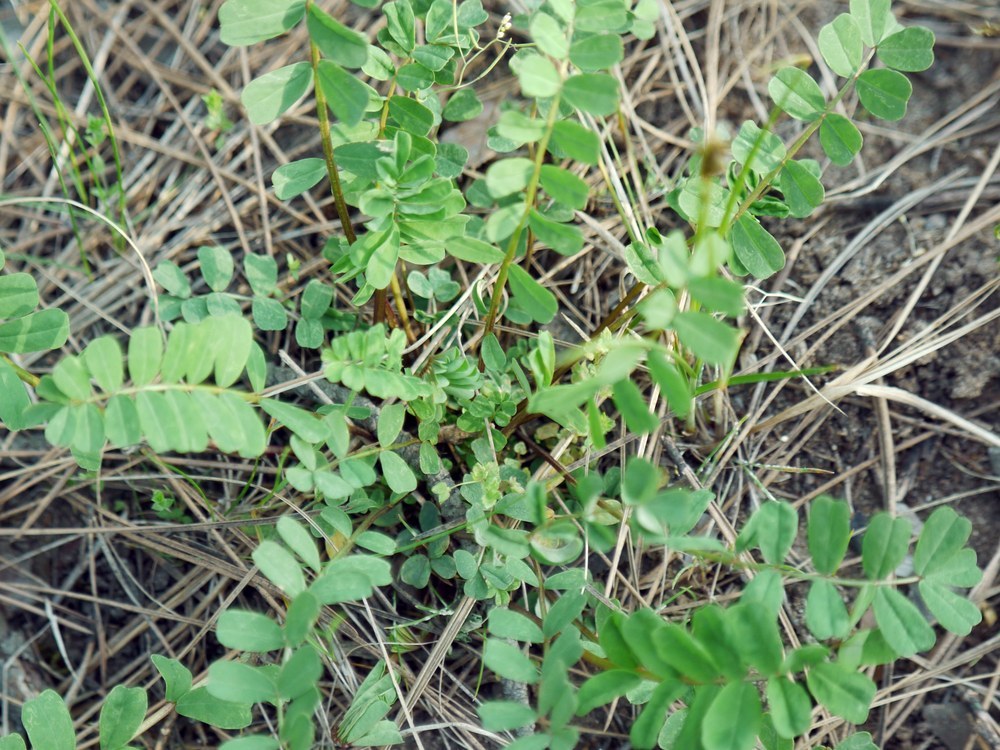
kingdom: Plantae
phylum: Tracheophyta
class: Magnoliopsida
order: Fabales
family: Fabaceae
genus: Coronilla
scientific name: Coronilla varia
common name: Crownvetch
